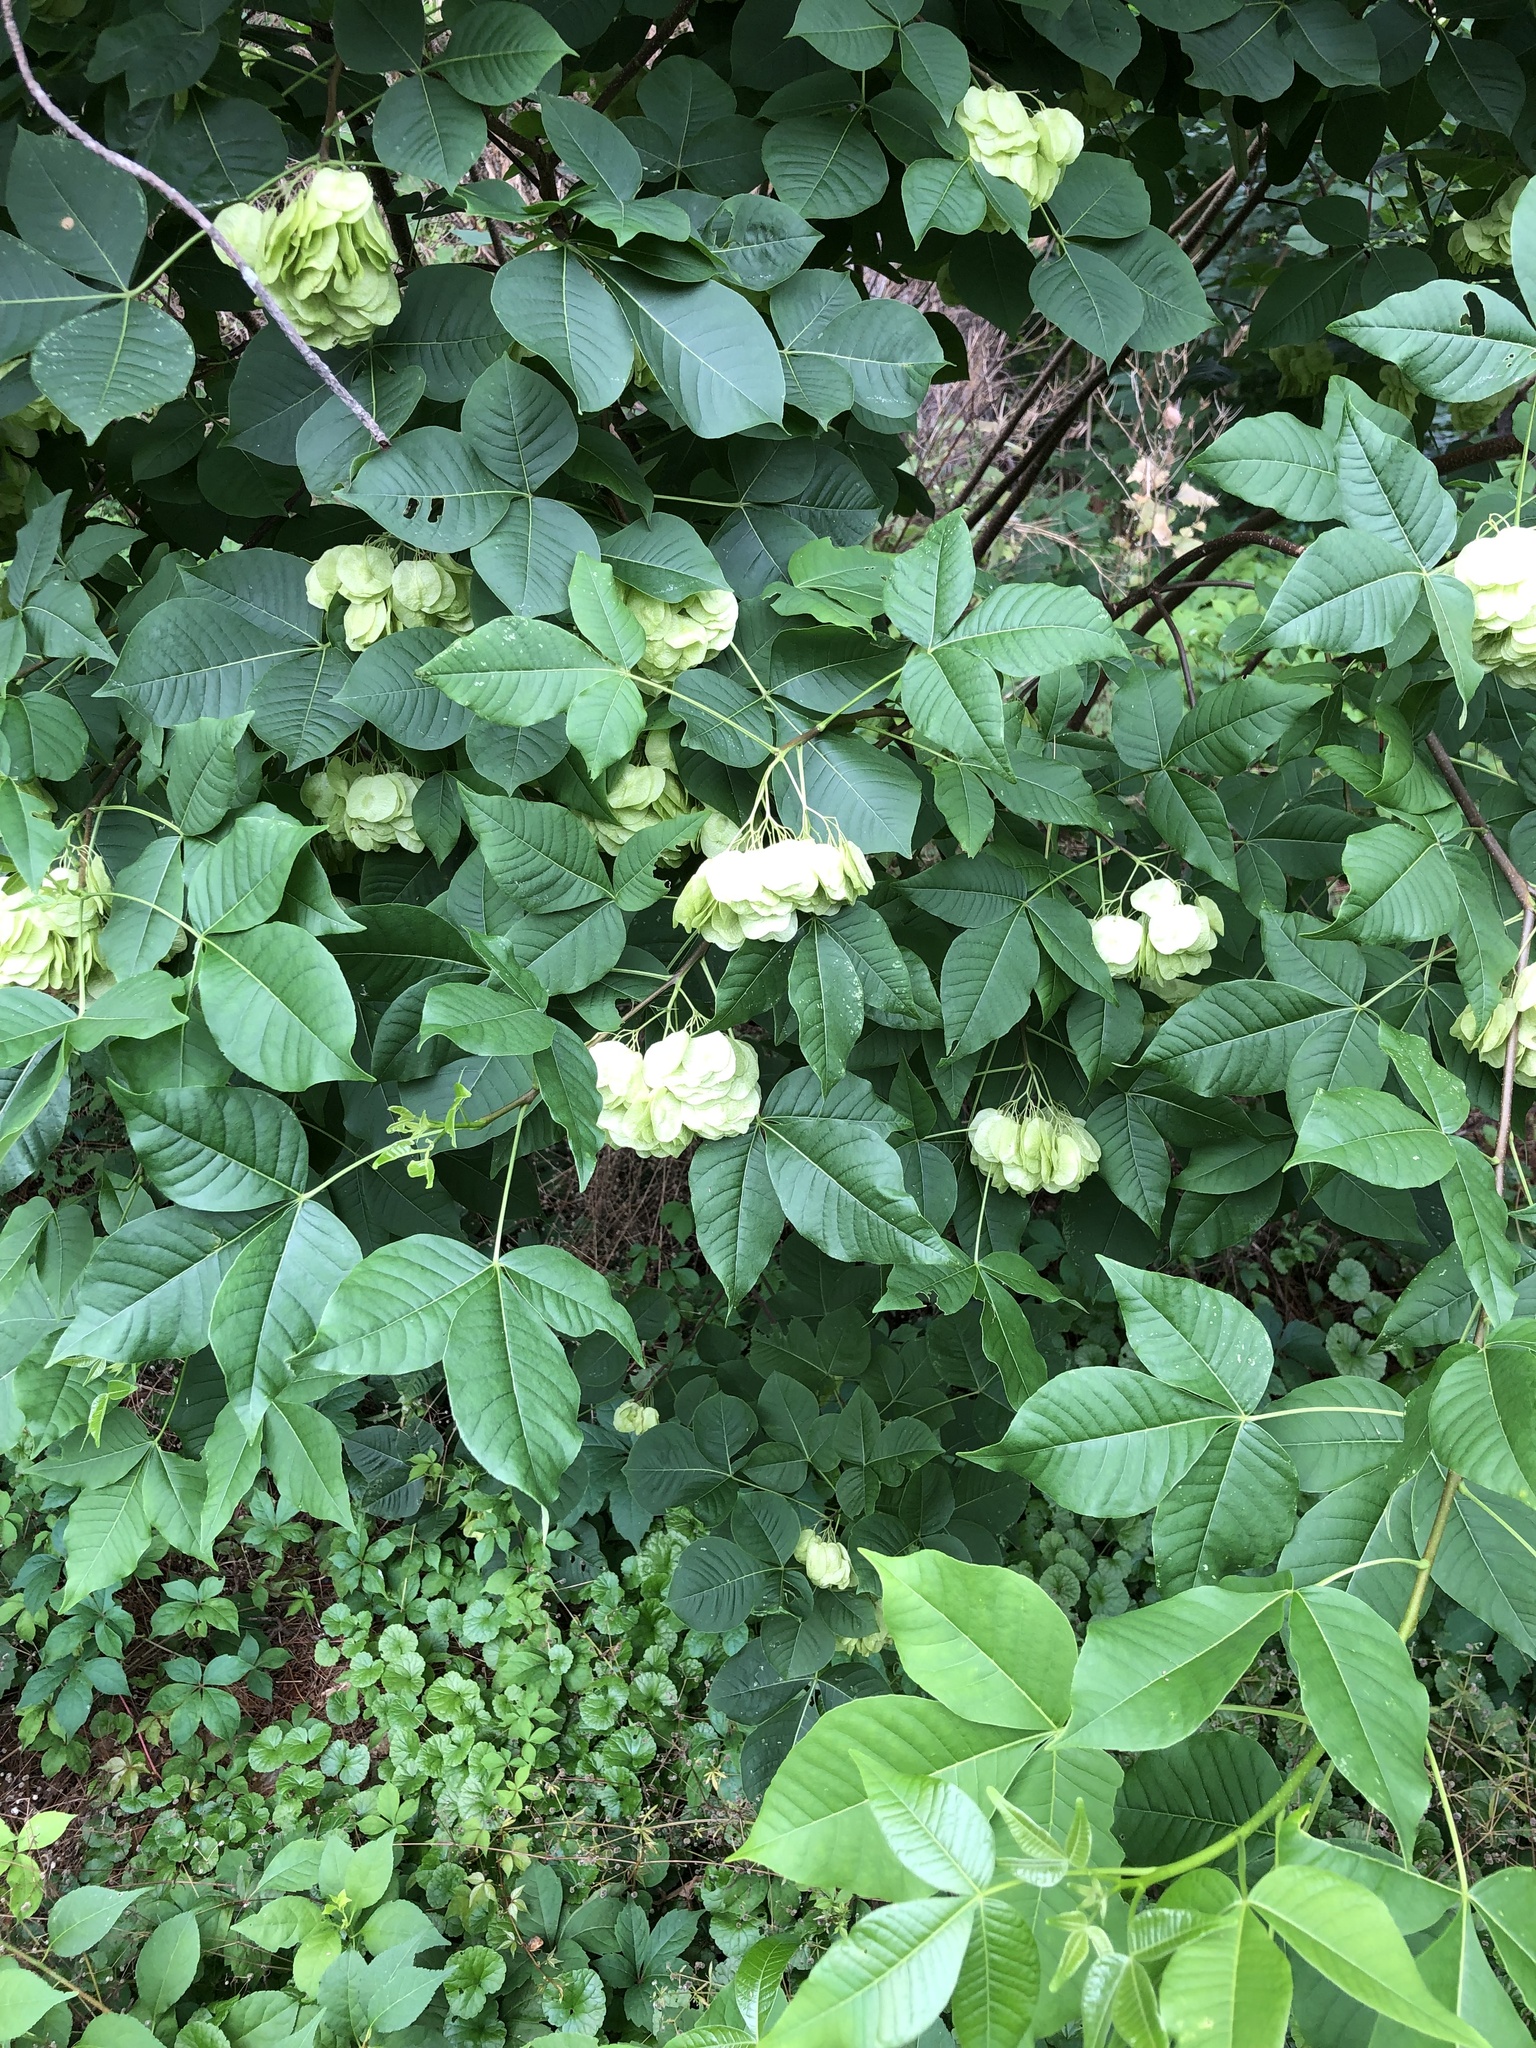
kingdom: Plantae
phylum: Tracheophyta
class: Magnoliopsida
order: Sapindales
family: Rutaceae
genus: Ptelea
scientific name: Ptelea trifoliata
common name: Common hop-tree
